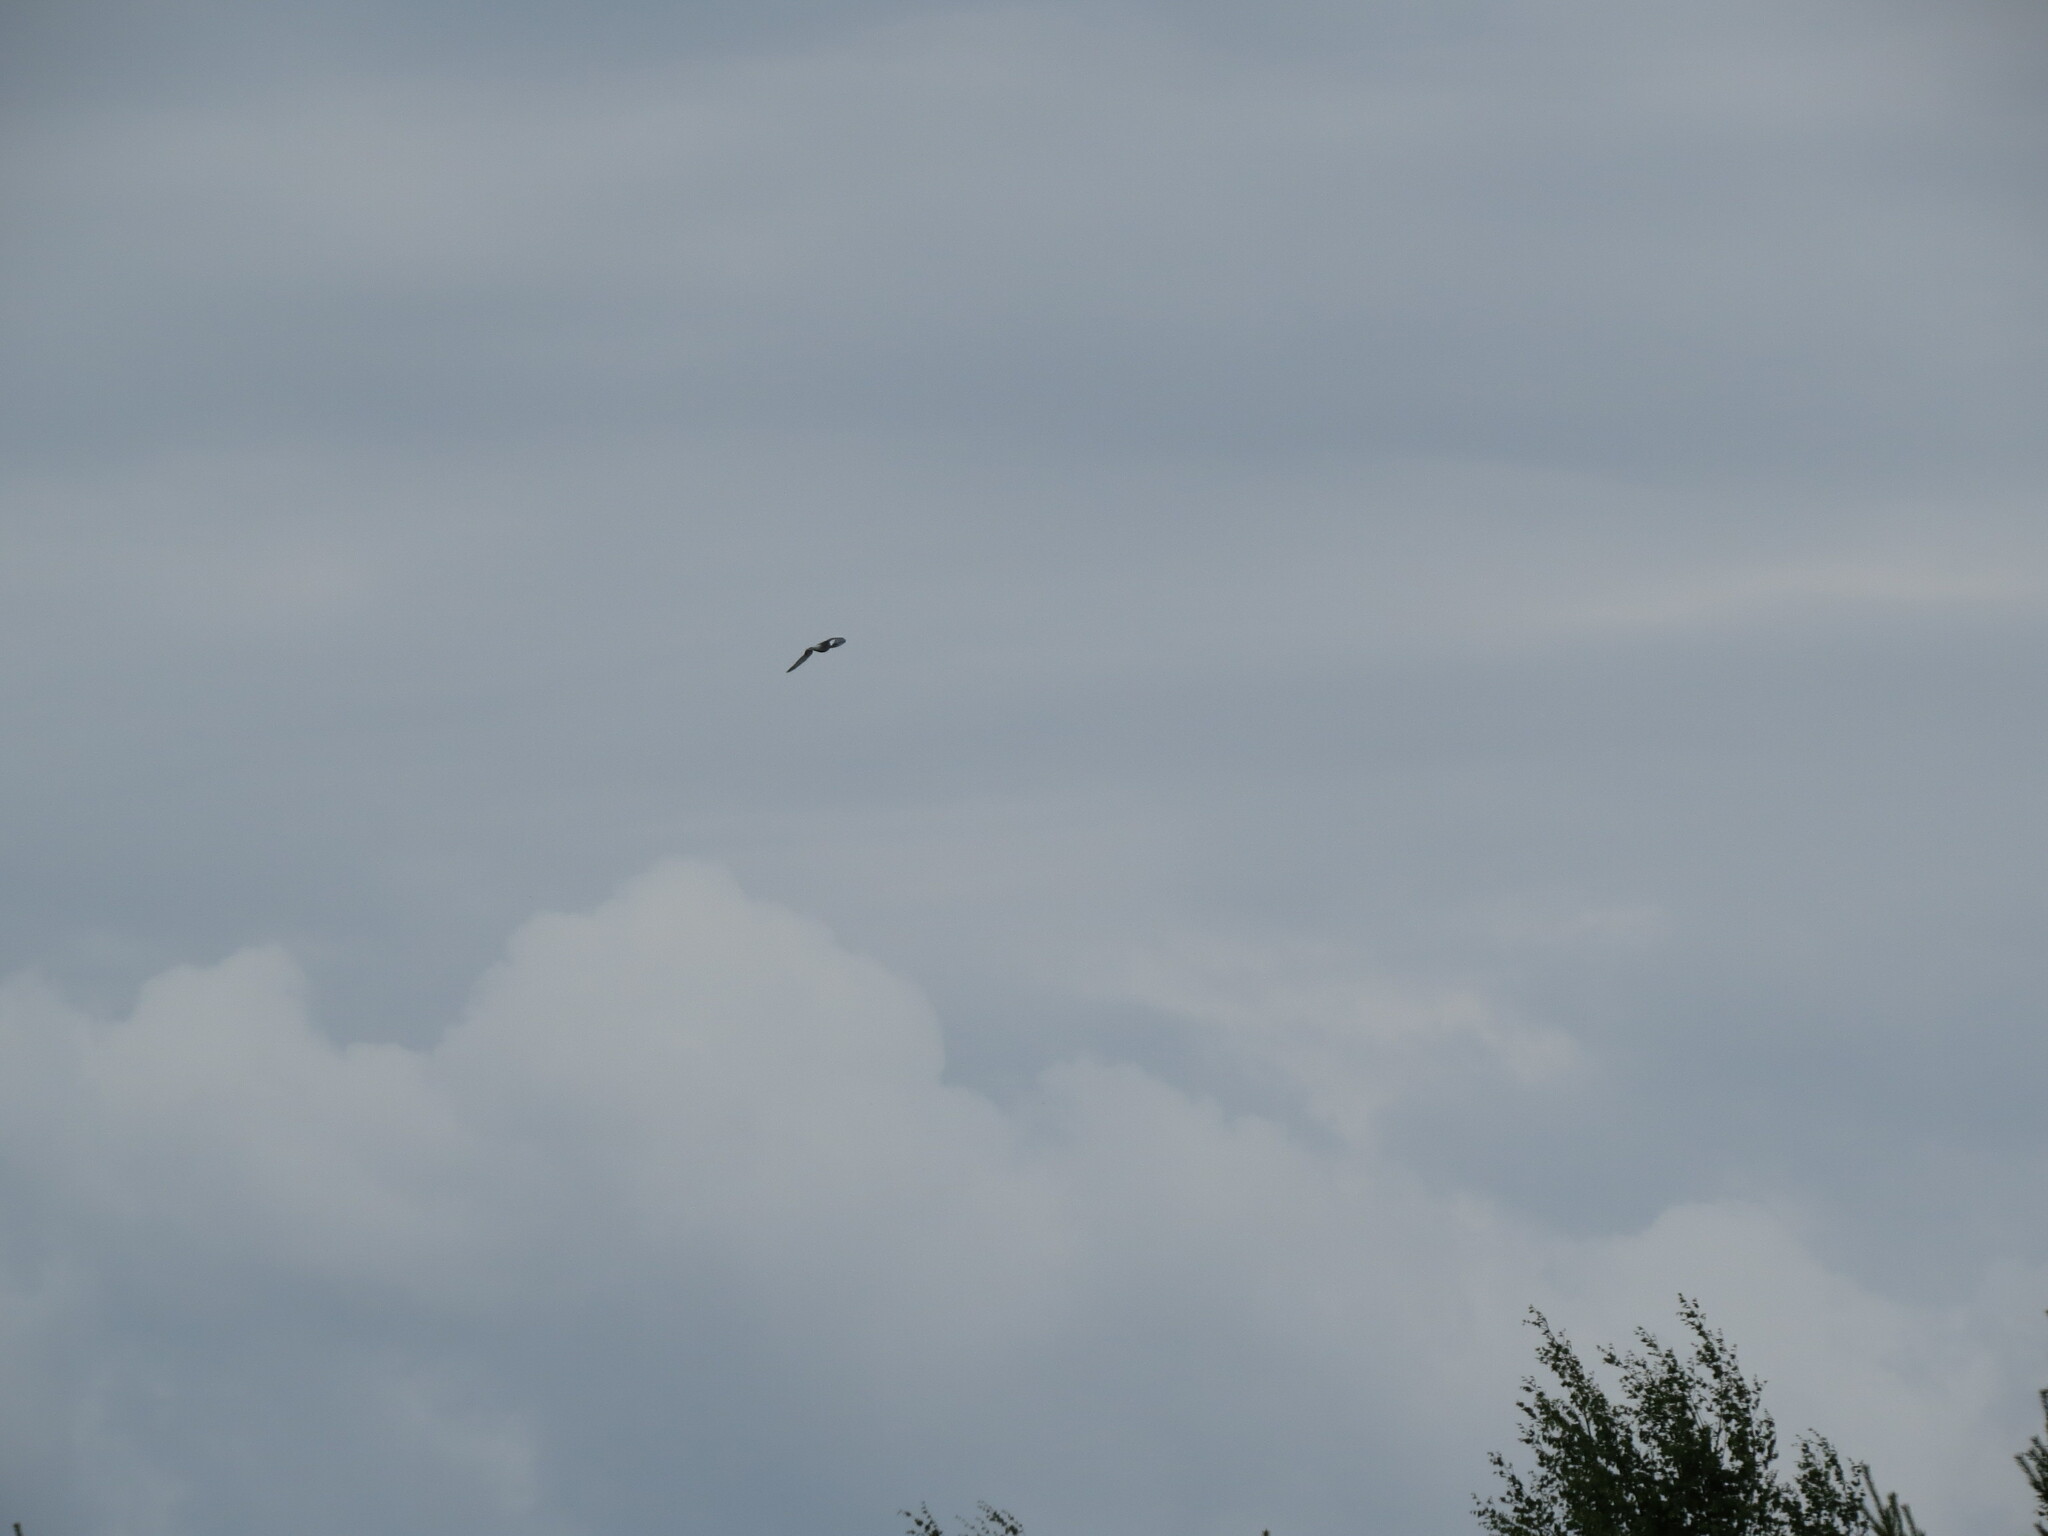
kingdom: Animalia
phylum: Chordata
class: Aves
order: Charadriiformes
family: Laridae
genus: Sterna
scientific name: Sterna hirundo
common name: Common tern
